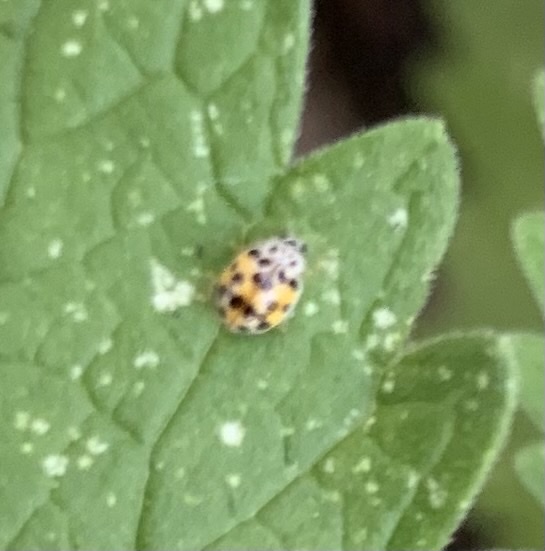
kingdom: Animalia
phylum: Arthropoda
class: Insecta
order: Coleoptera
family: Coccinellidae
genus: Psyllobora
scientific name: Psyllobora vigintimaculata
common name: Ladybird beetle
